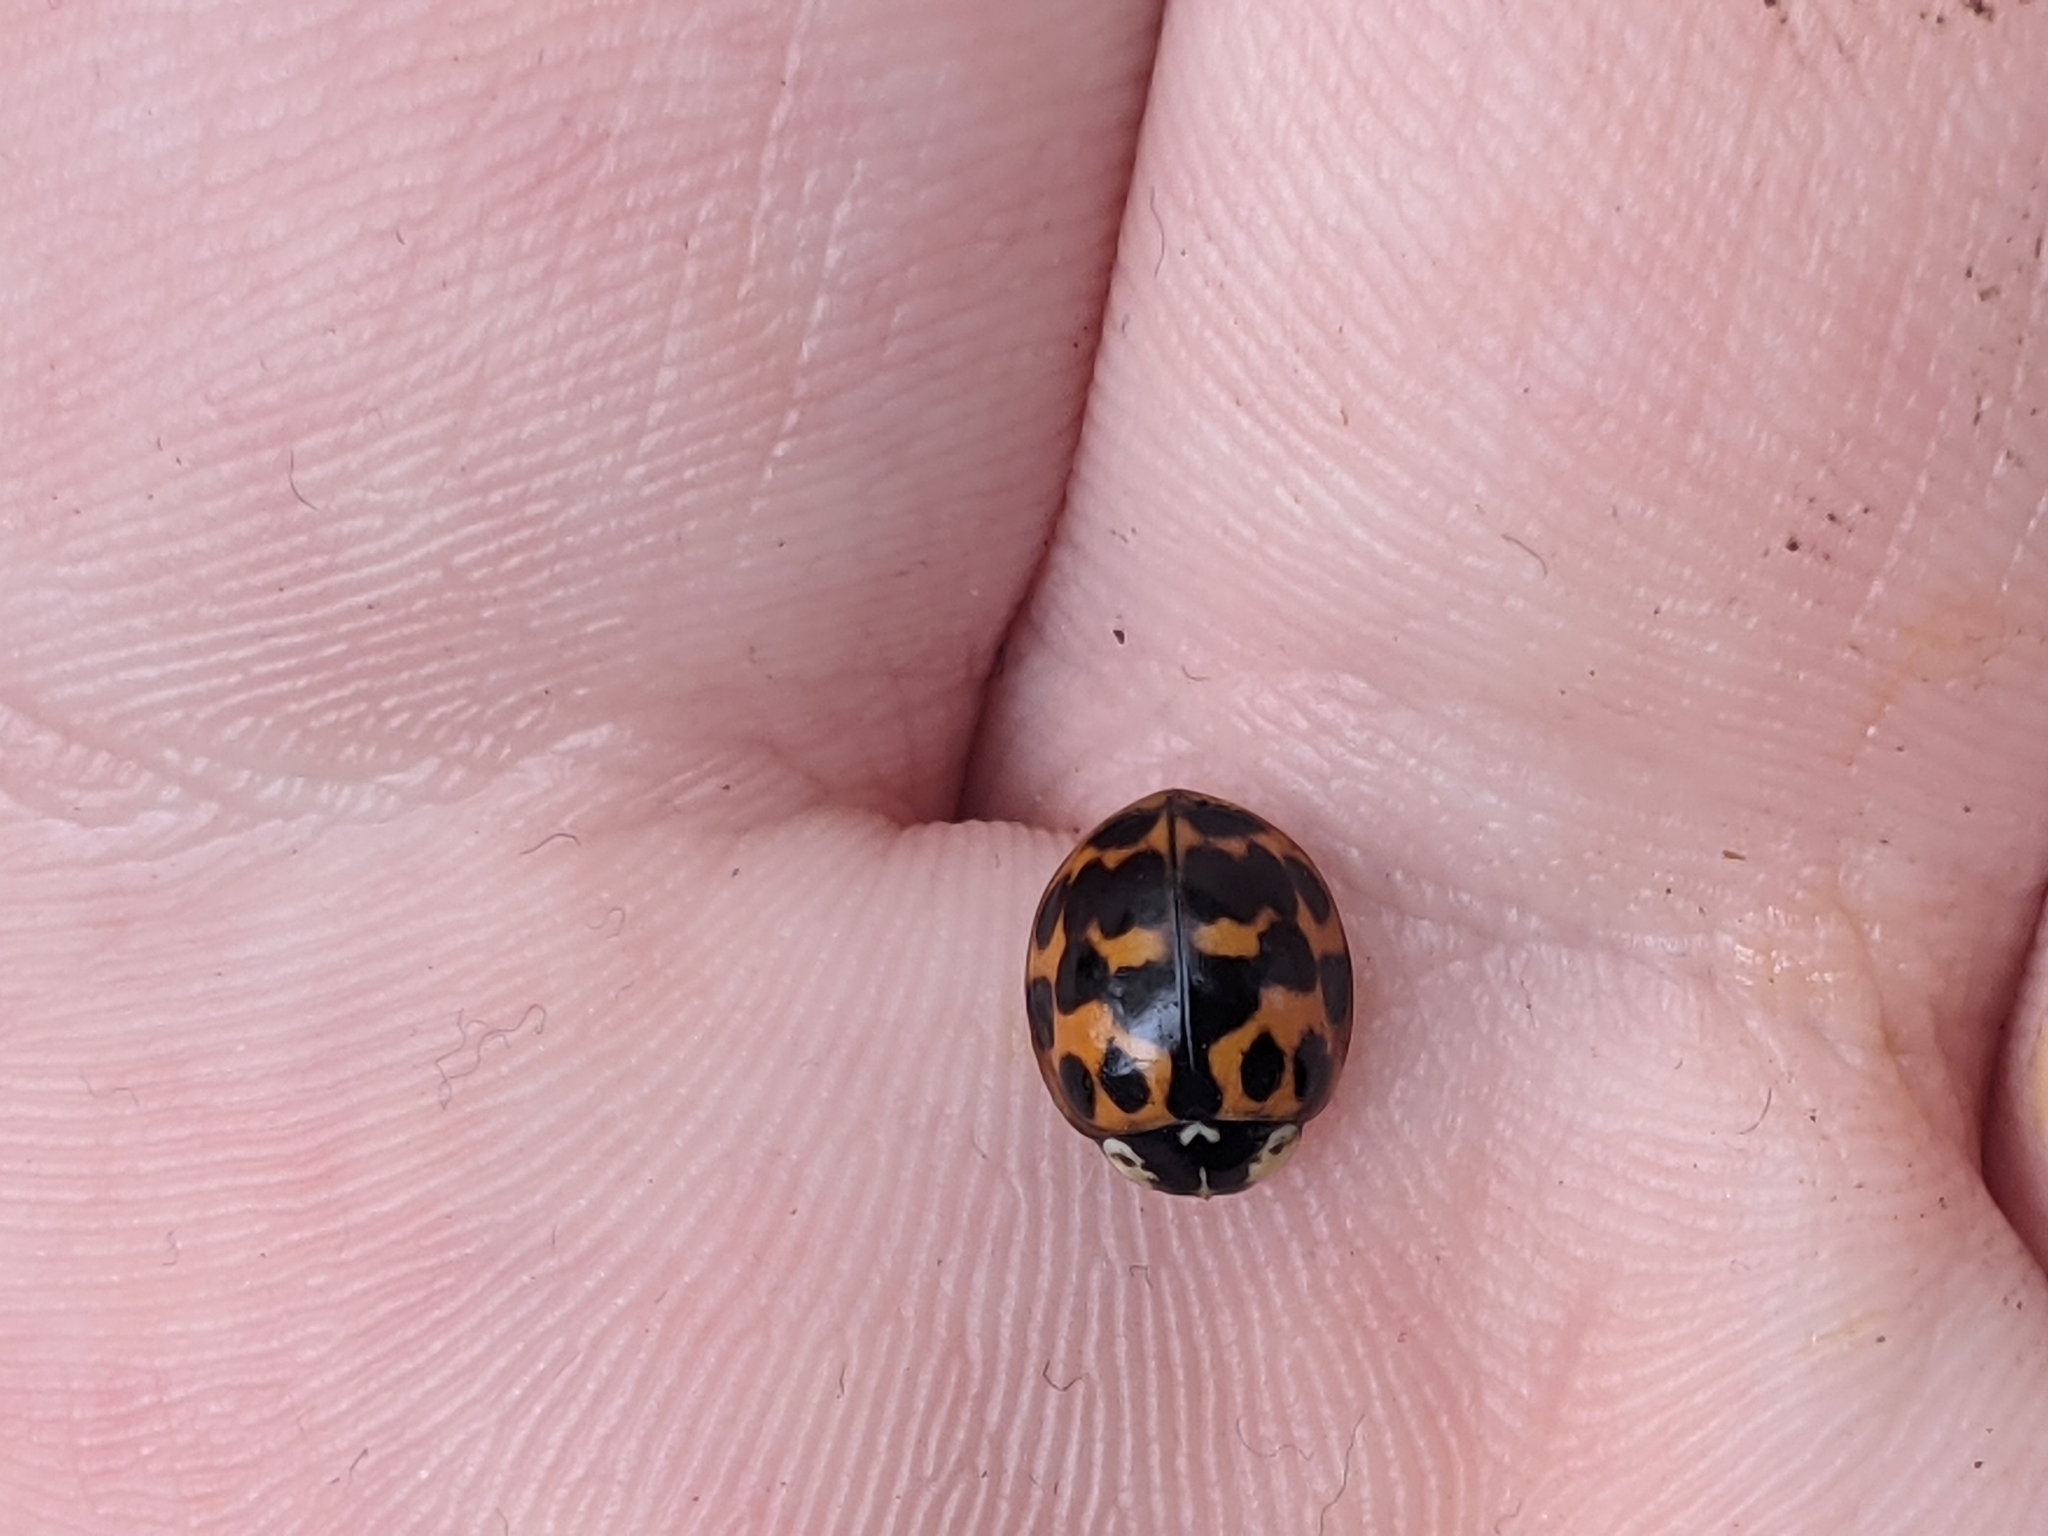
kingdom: Animalia
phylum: Arthropoda
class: Insecta
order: Coleoptera
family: Coccinellidae
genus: Harmonia
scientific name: Harmonia axyridis
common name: Harlequin ladybird
